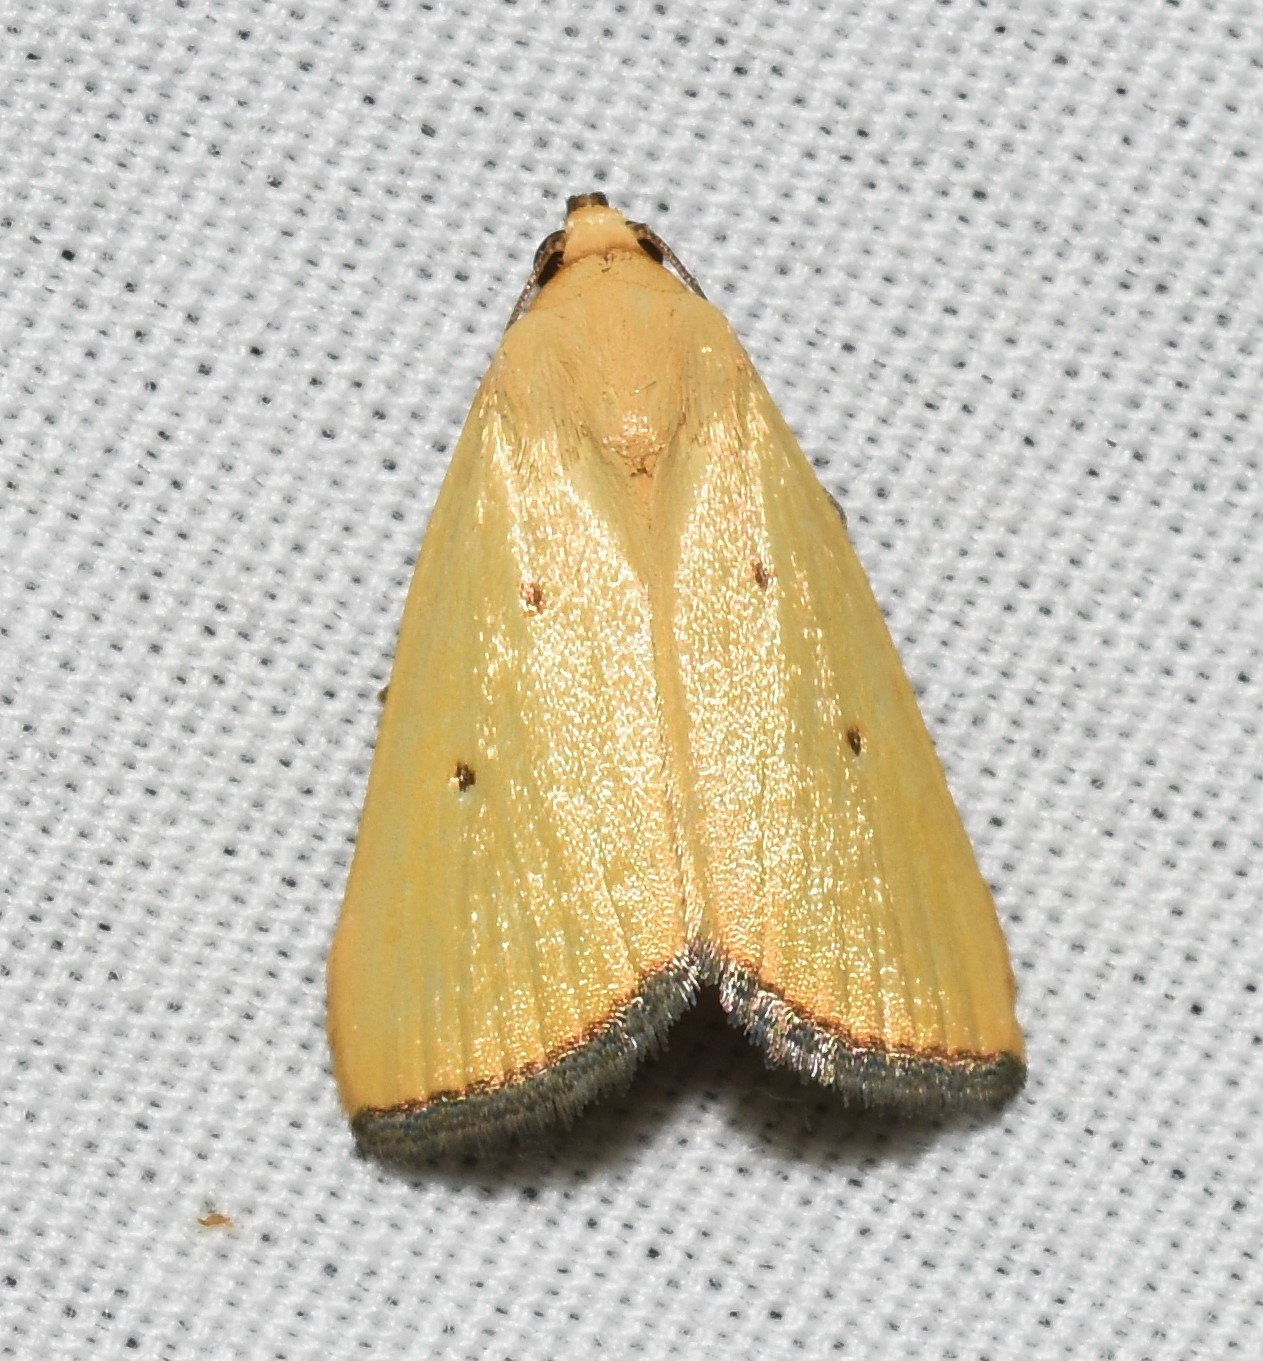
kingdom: Animalia
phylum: Arthropoda
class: Insecta
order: Lepidoptera
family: Noctuidae
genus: Marimatha
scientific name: Marimatha nigrofimbria
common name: Black-bordered lemon moth
